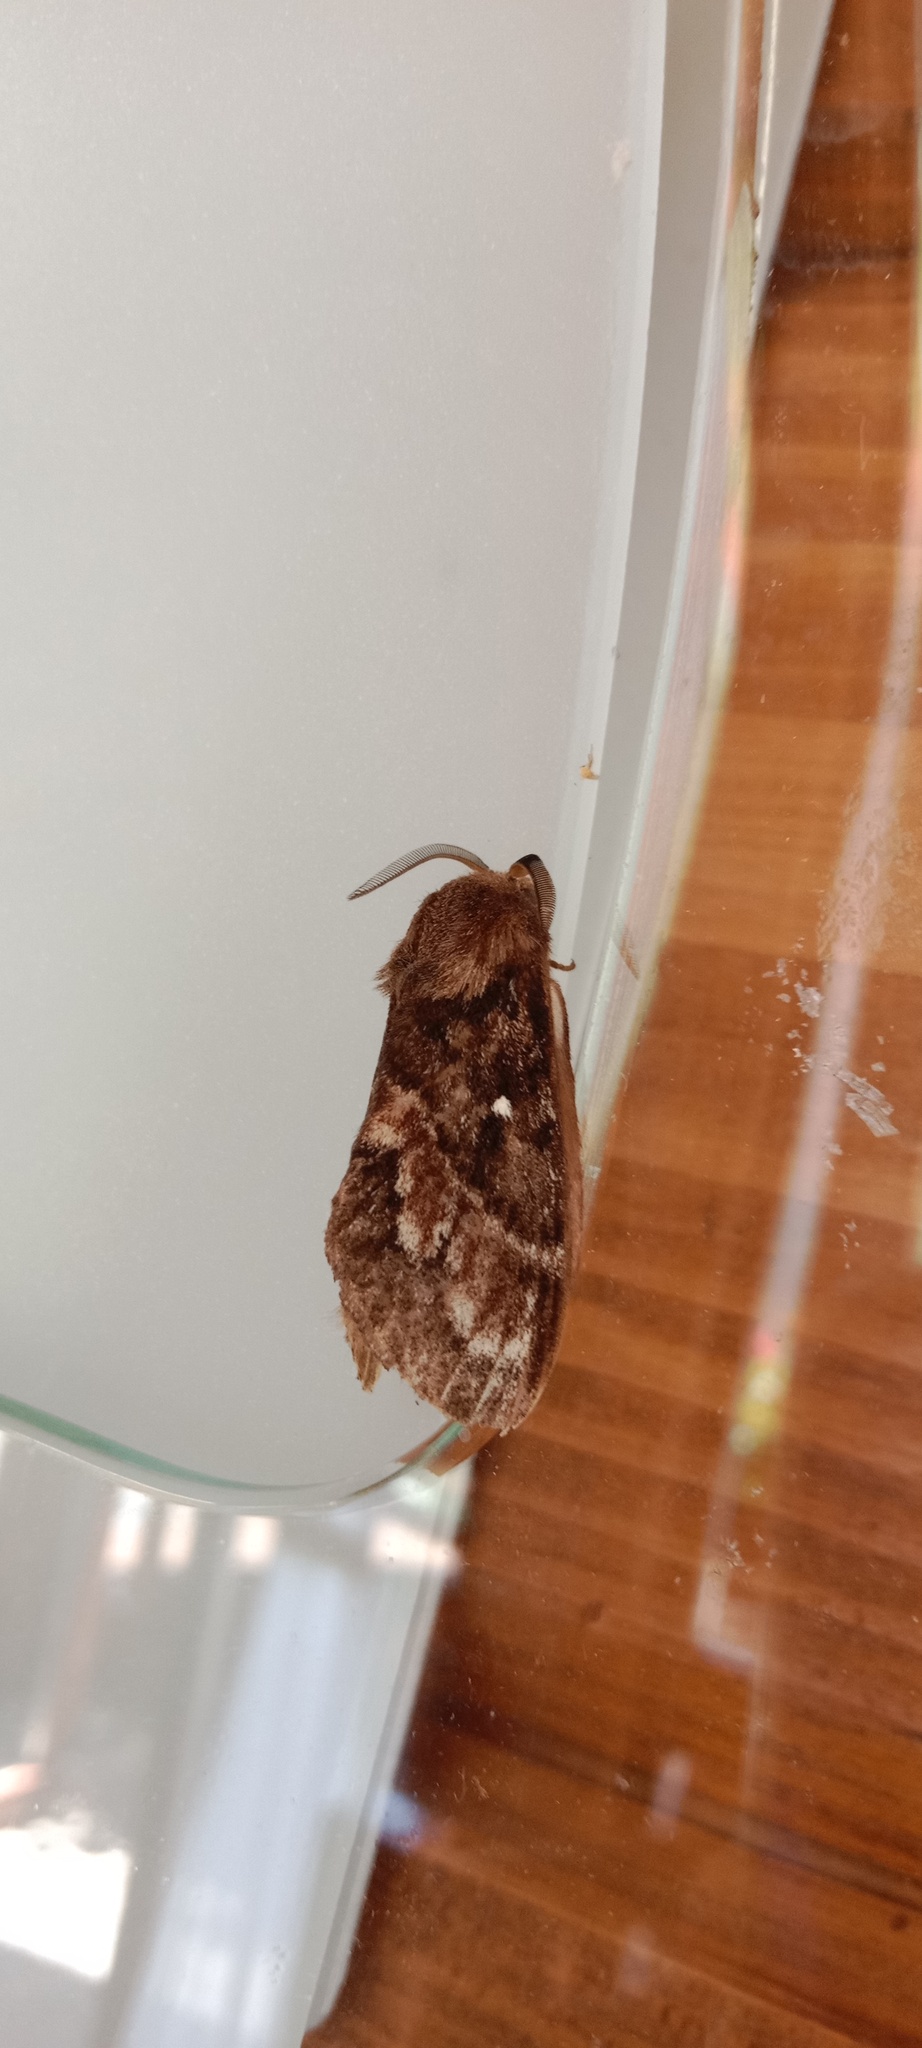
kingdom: Animalia
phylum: Arthropoda
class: Insecta
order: Lepidoptera
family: Lasiocampidae
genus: Dendrolimus
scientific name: Dendrolimus pini
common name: Pine-tree lappet
